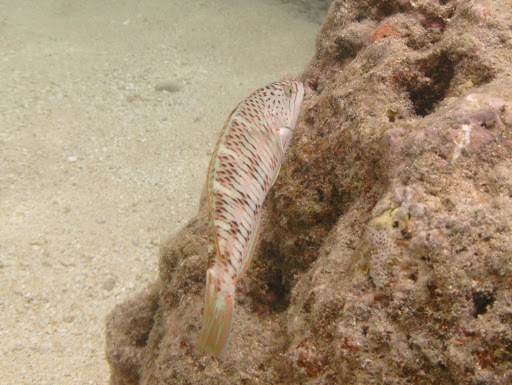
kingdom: Animalia
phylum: Chordata
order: Perciformes
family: Labridae
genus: Thalassoma
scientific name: Thalassoma trilobatum
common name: Christmas wrasse
